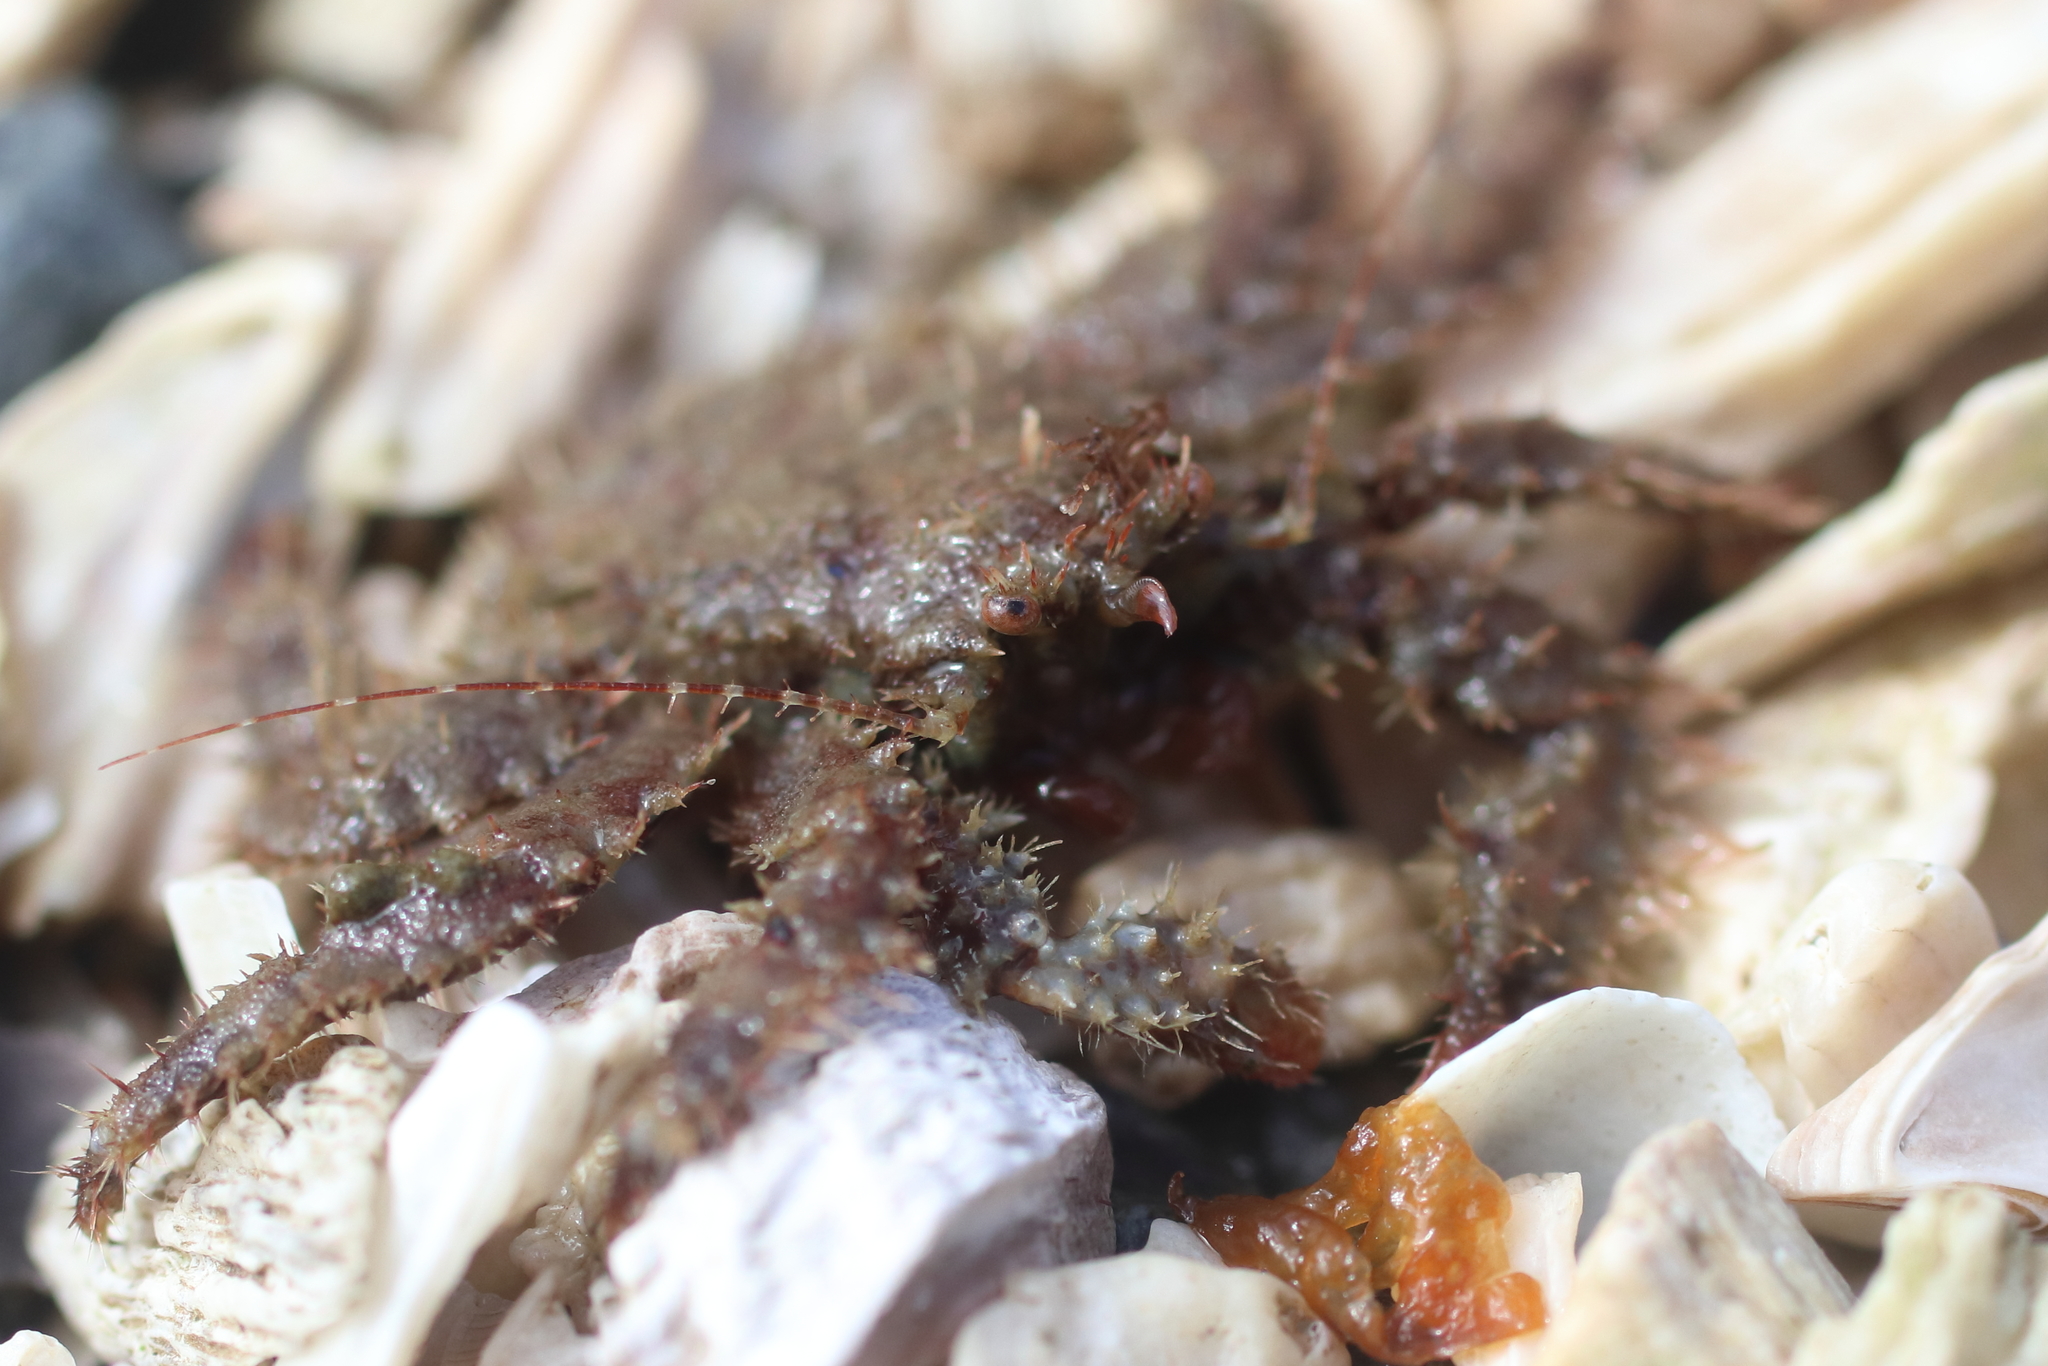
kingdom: Animalia
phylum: Arthropoda
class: Malacostraca
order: Decapoda
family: Hapalogastridae
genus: Hapalogaster
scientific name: Hapalogaster mertensii
